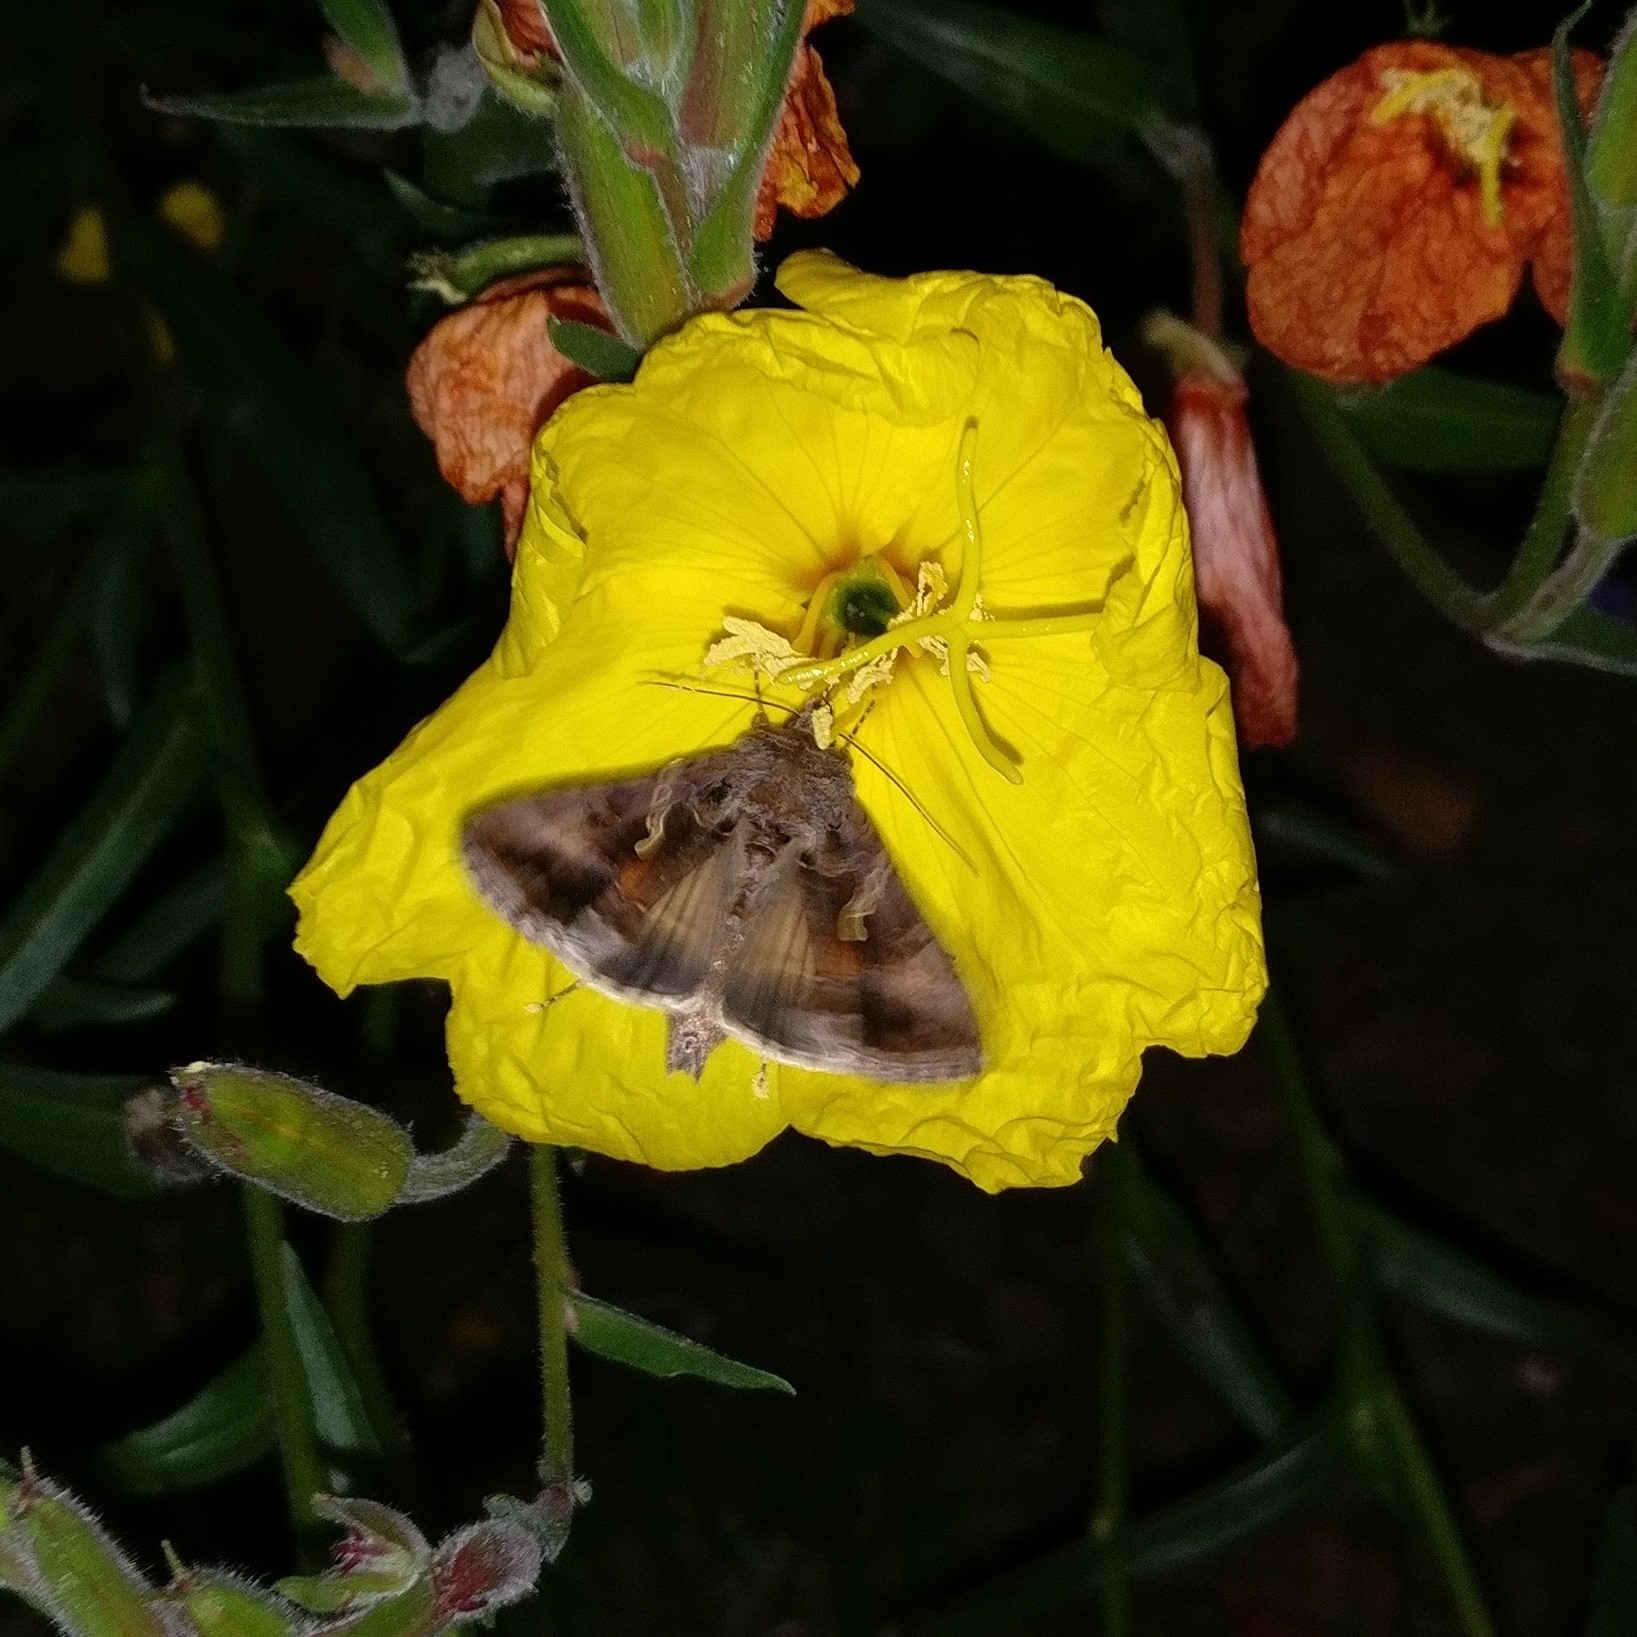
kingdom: Animalia
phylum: Arthropoda
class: Insecta
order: Lepidoptera
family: Noctuidae
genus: Autographa
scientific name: Autographa gamma
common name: Silver y
